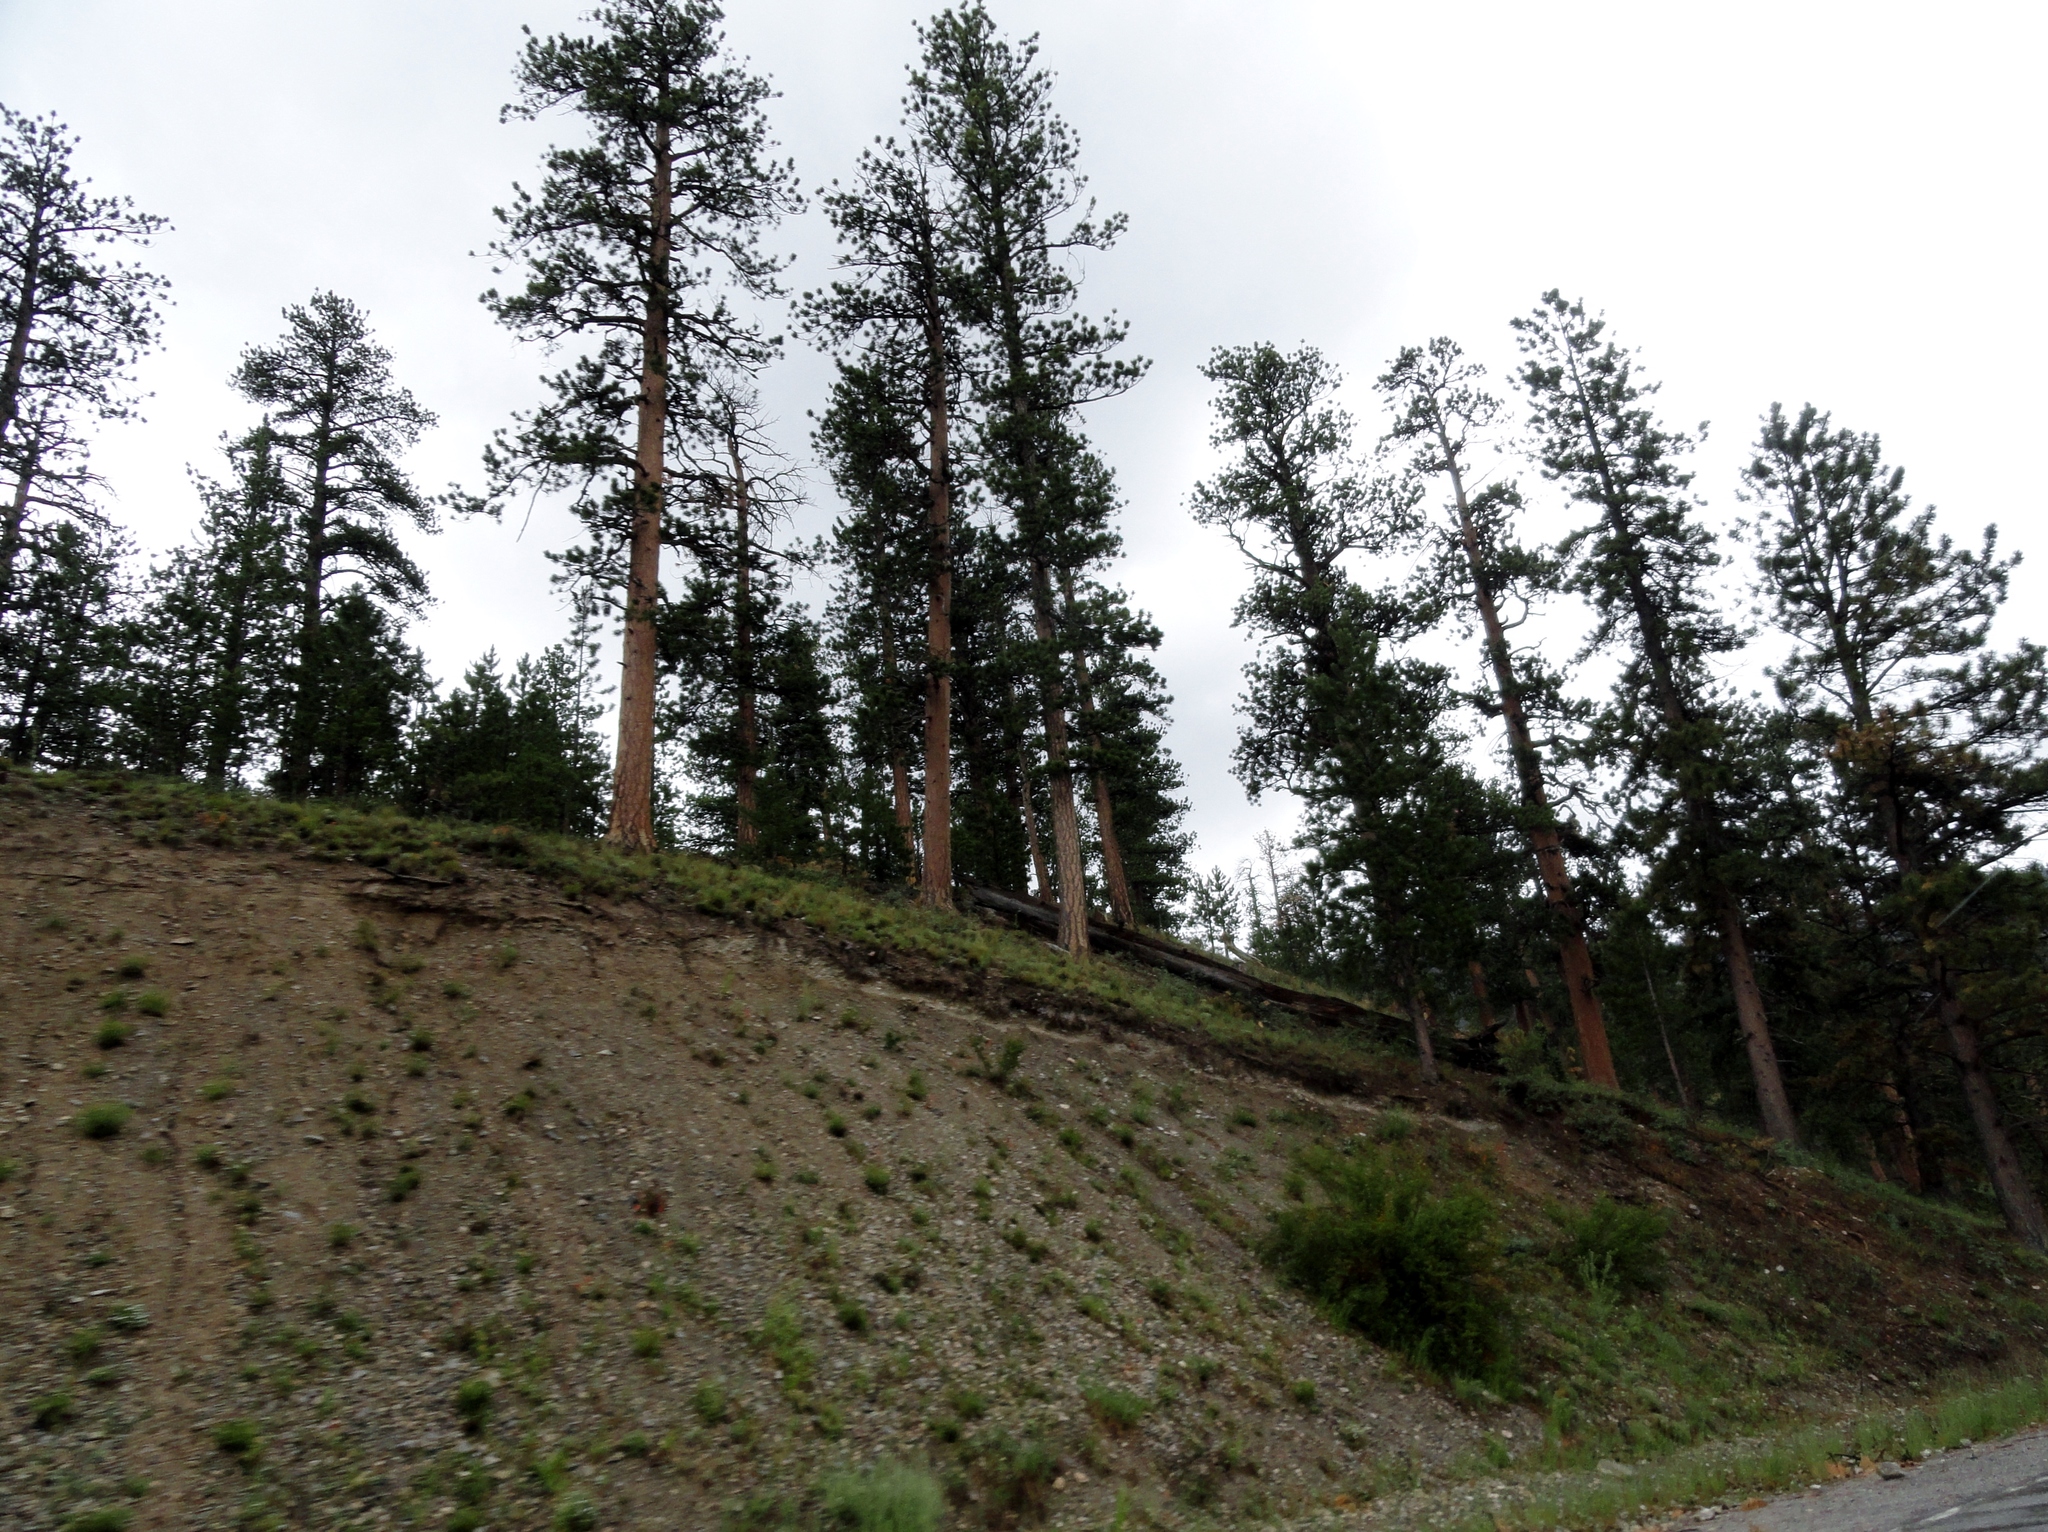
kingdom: Plantae
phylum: Tracheophyta
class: Pinopsida
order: Pinales
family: Pinaceae
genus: Pinus
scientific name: Pinus ponderosa
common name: Western yellow-pine
